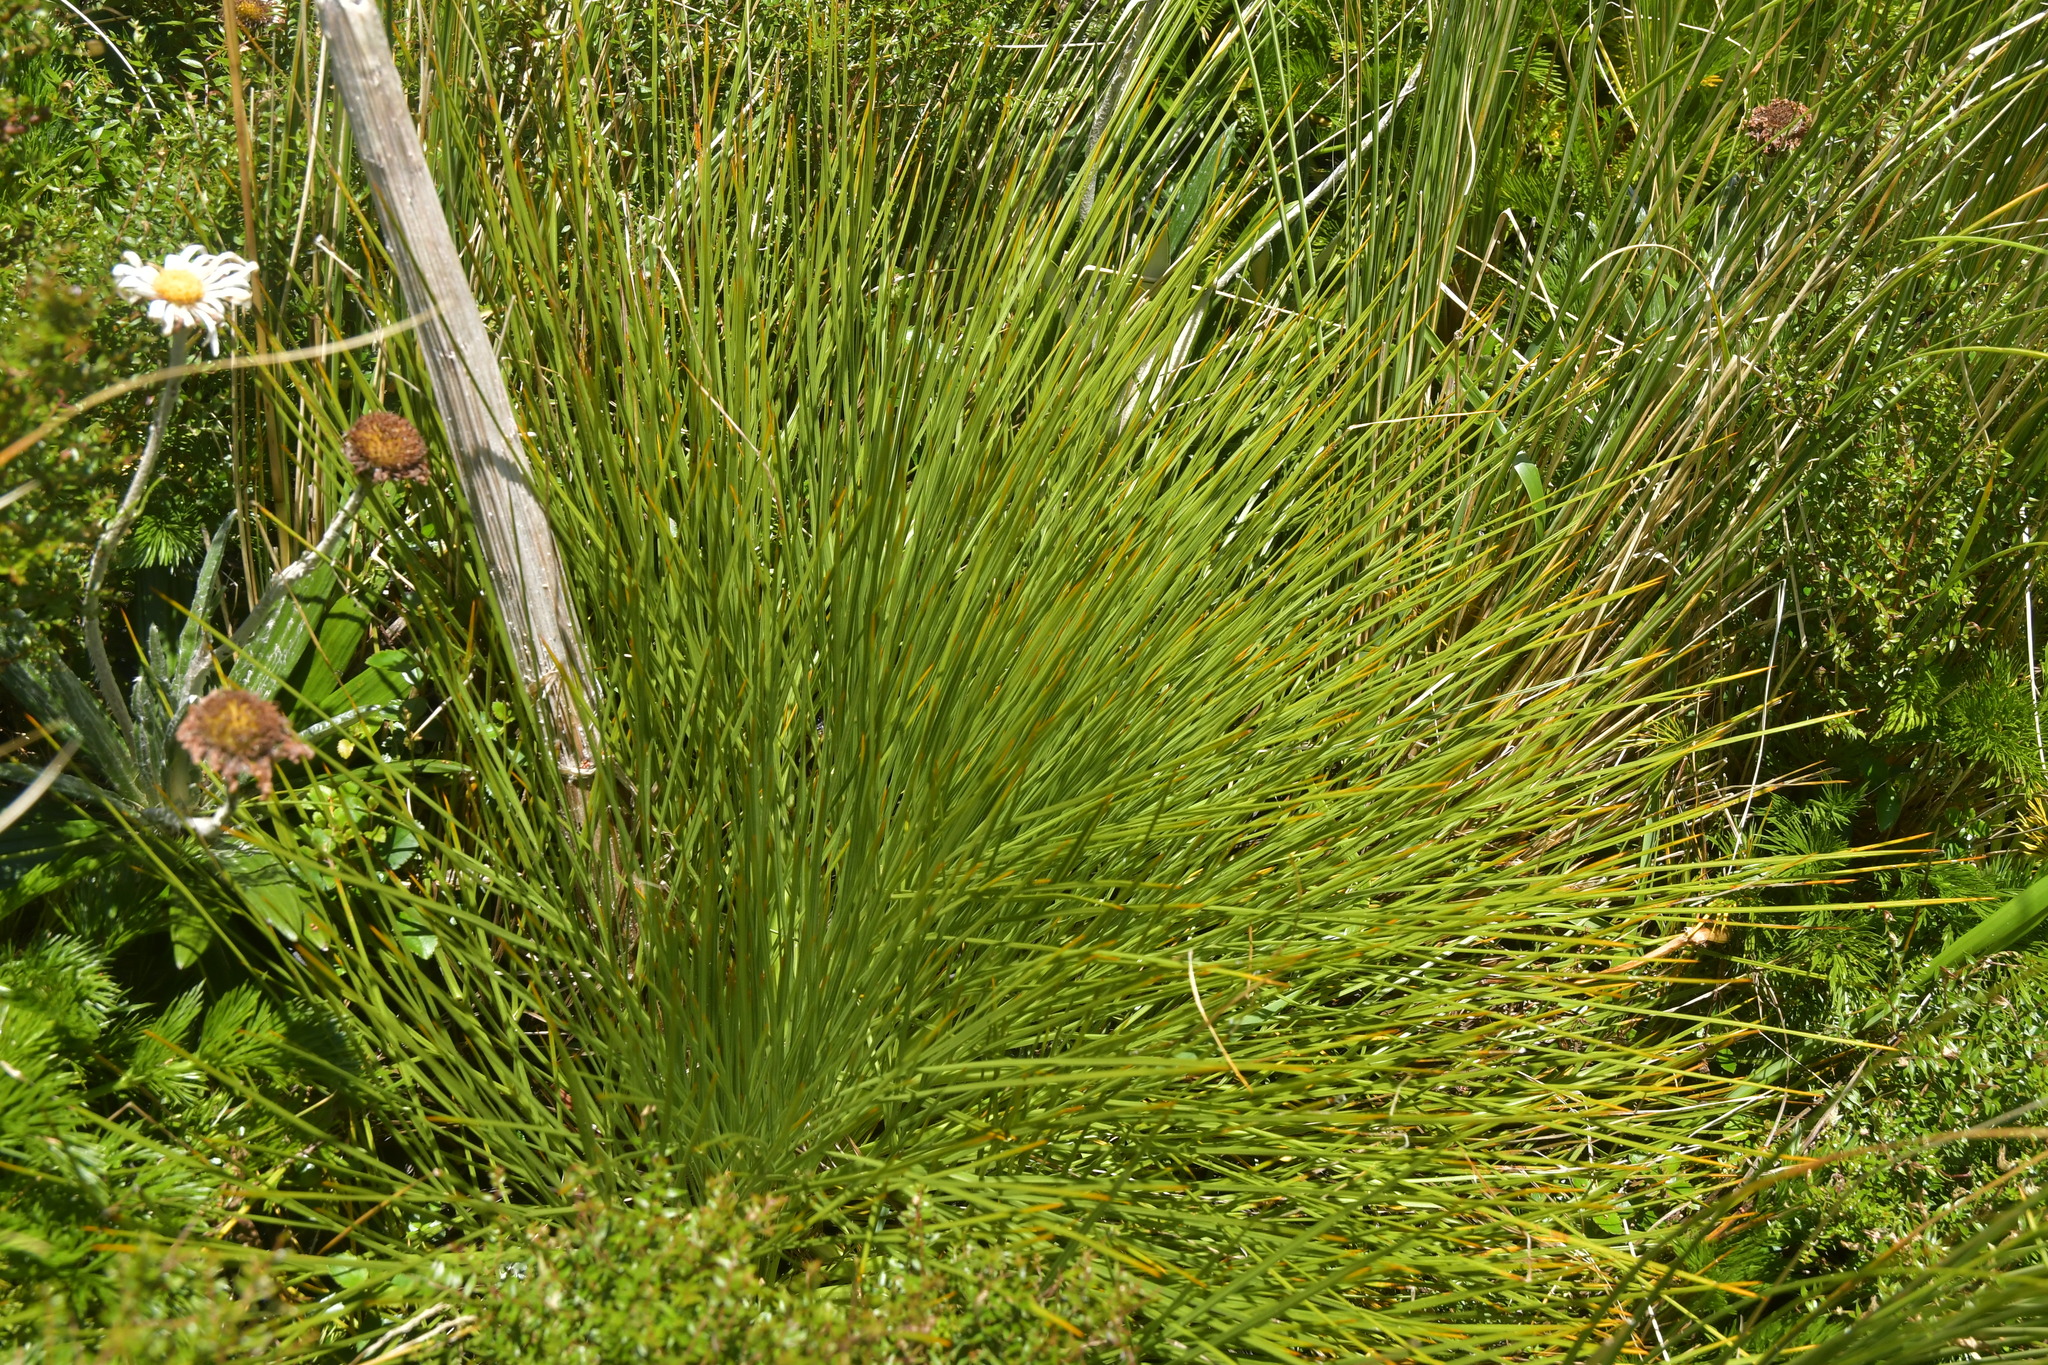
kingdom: Plantae
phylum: Tracheophyta
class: Magnoliopsida
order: Apiales
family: Apiaceae
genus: Aciphylla
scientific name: Aciphylla squarrosa
